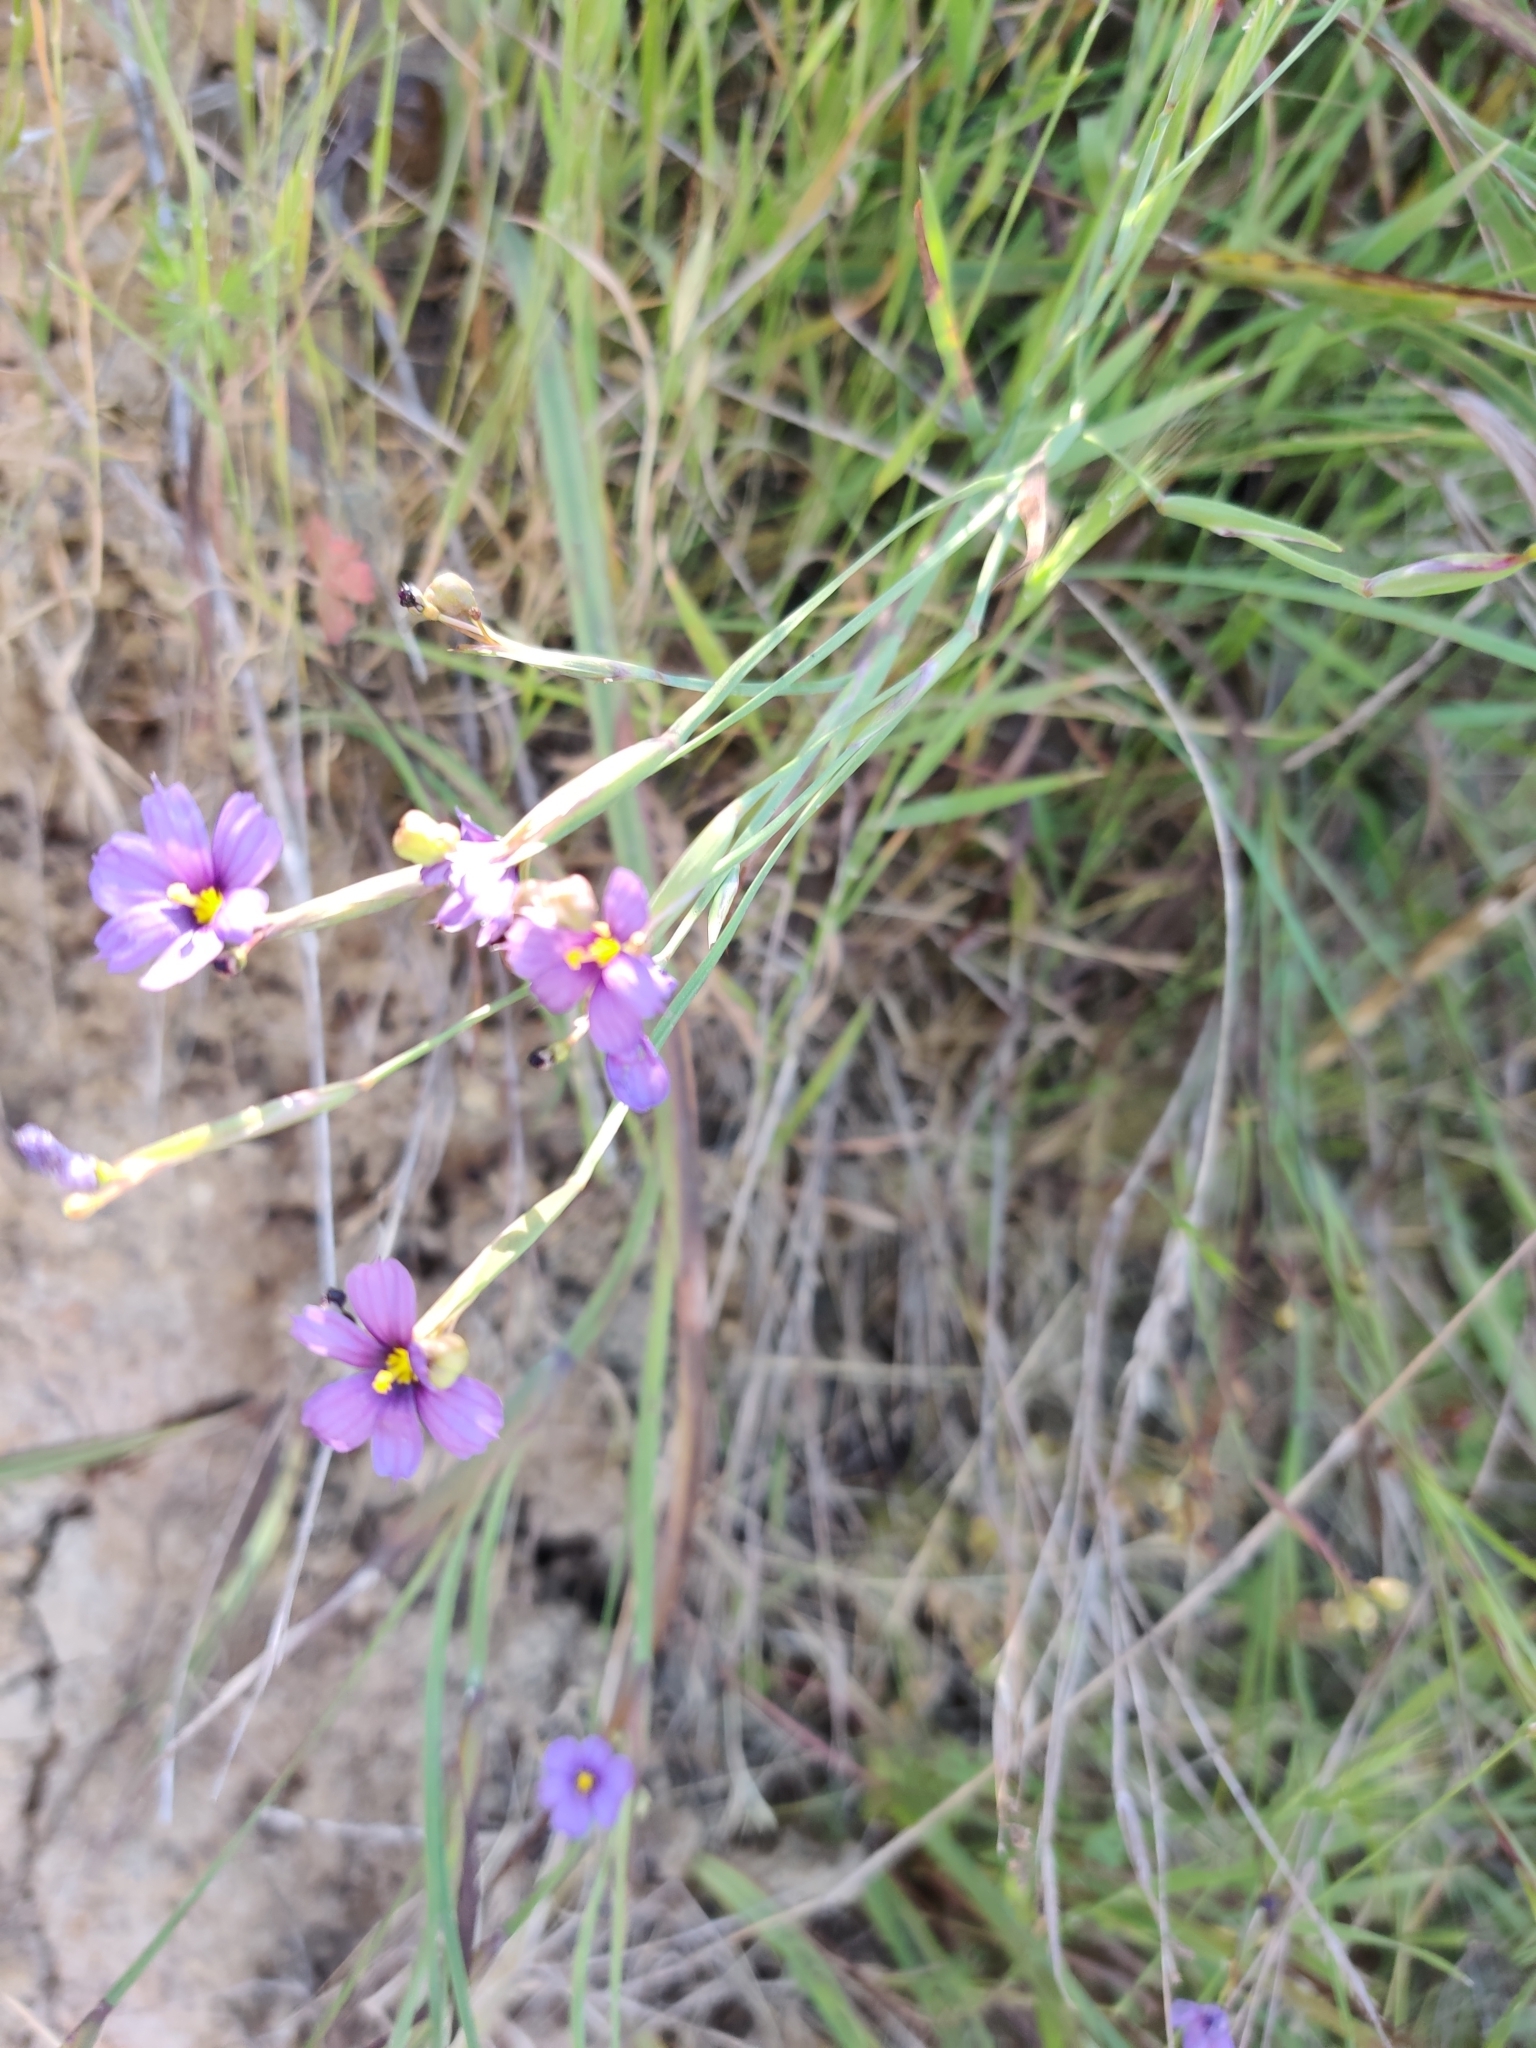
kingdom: Plantae
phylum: Tracheophyta
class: Liliopsida
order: Asparagales
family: Iridaceae
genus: Sisyrinchium
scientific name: Sisyrinchium bellum
